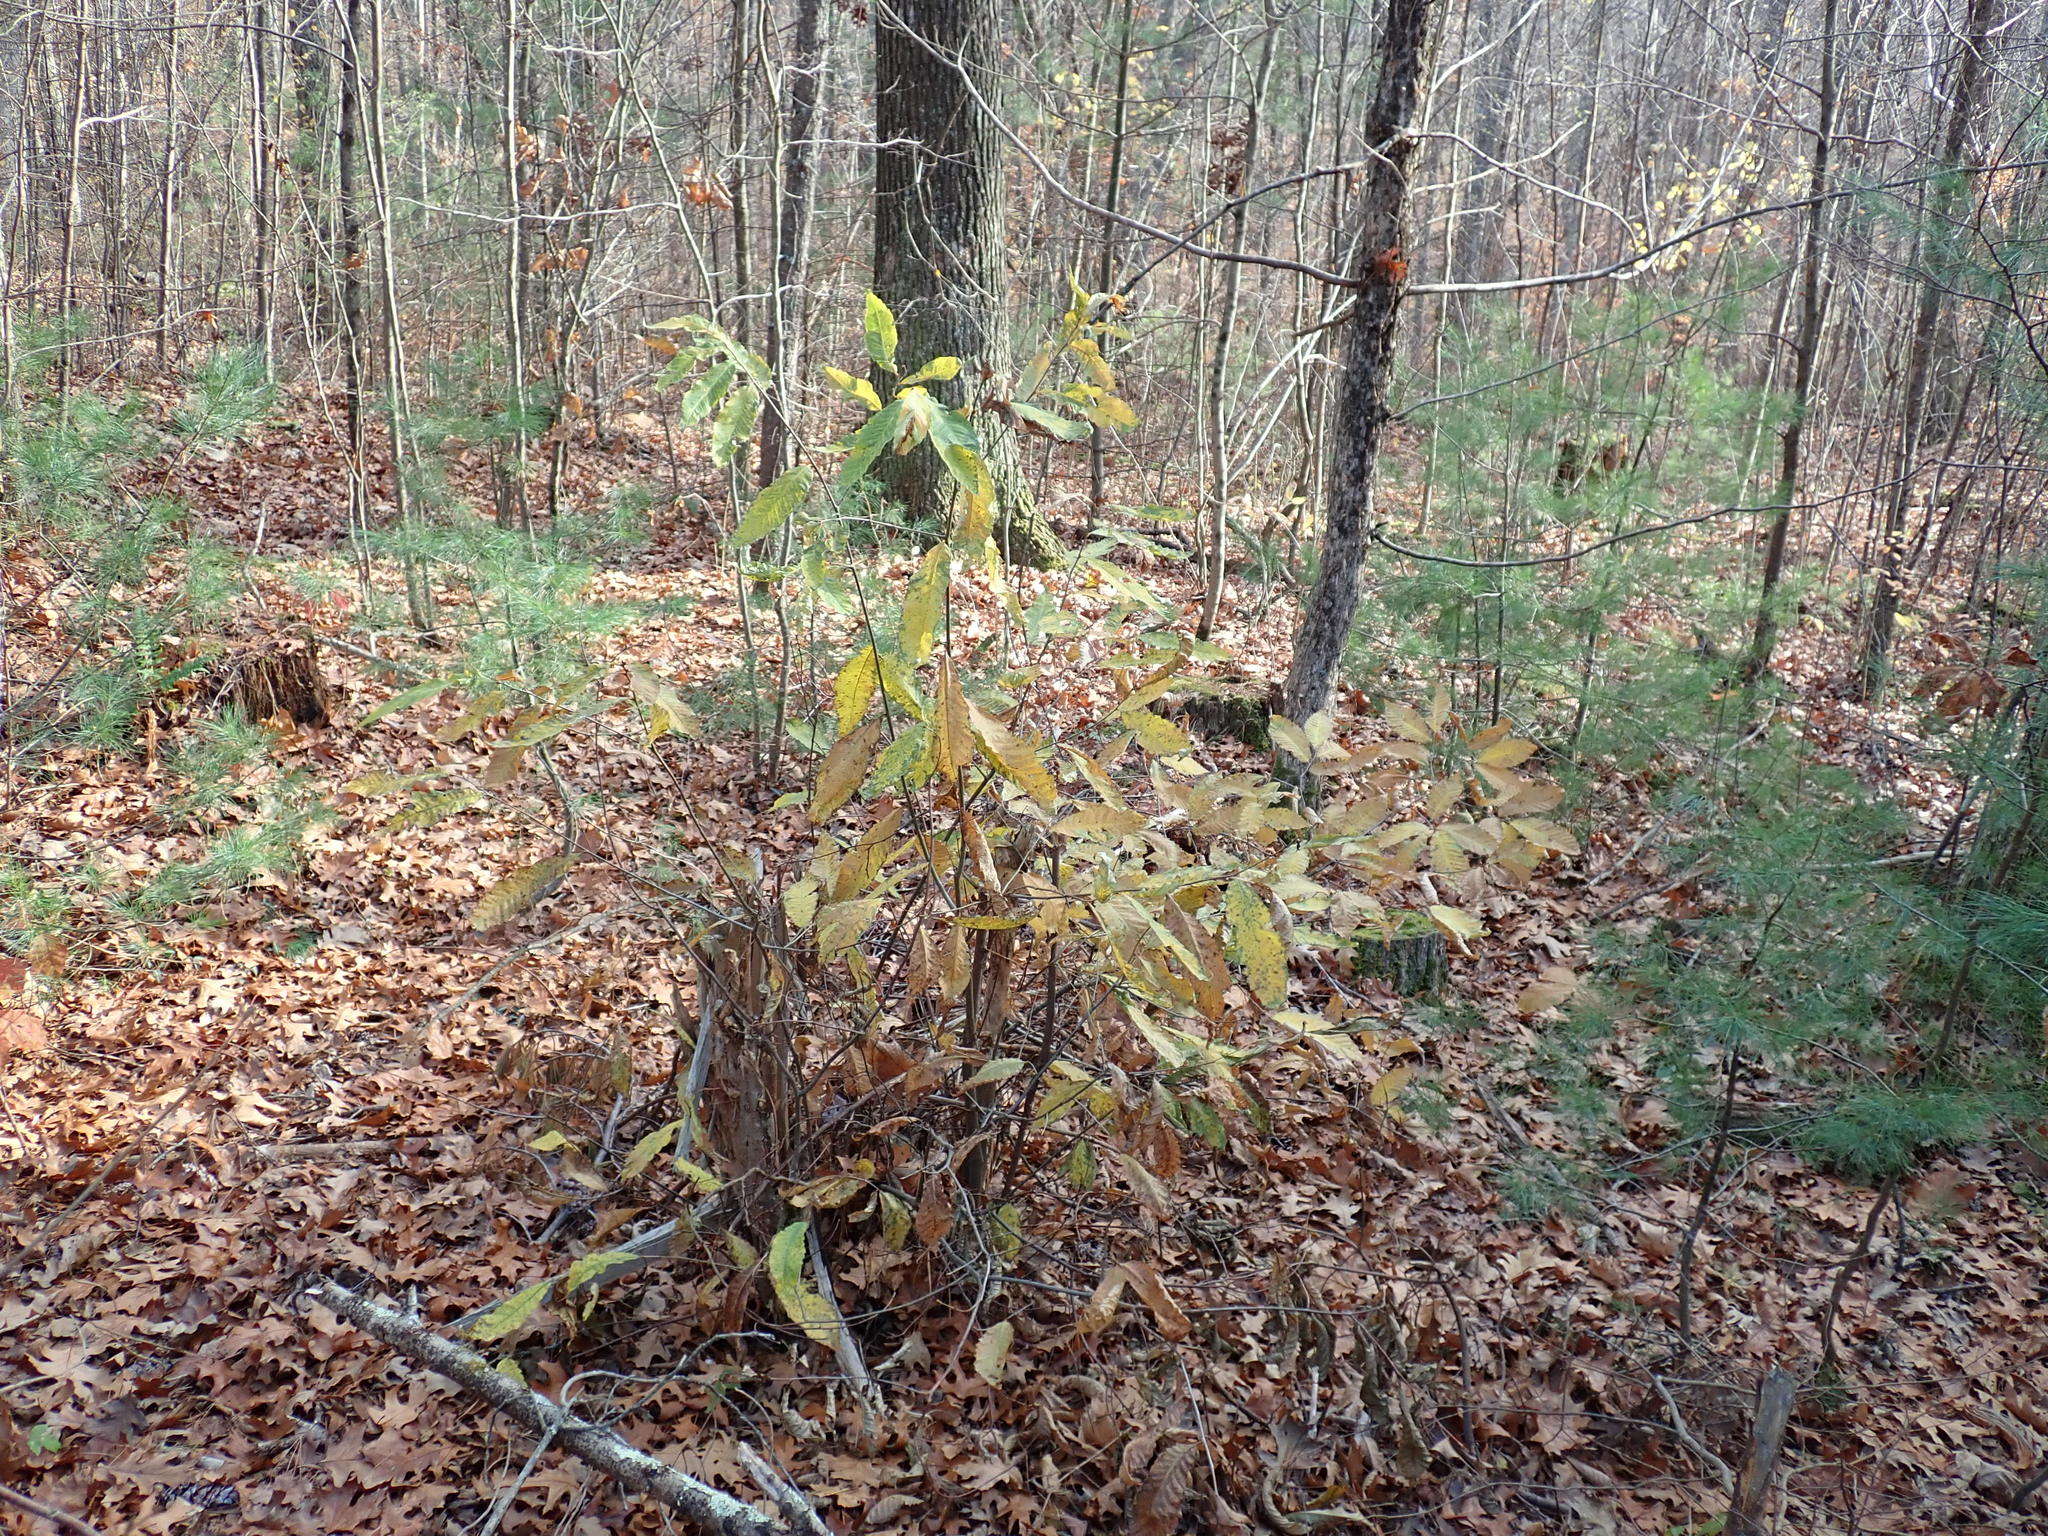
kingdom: Plantae
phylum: Tracheophyta
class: Magnoliopsida
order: Fagales
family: Fagaceae
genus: Castanea
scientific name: Castanea dentata
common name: American chestnut
